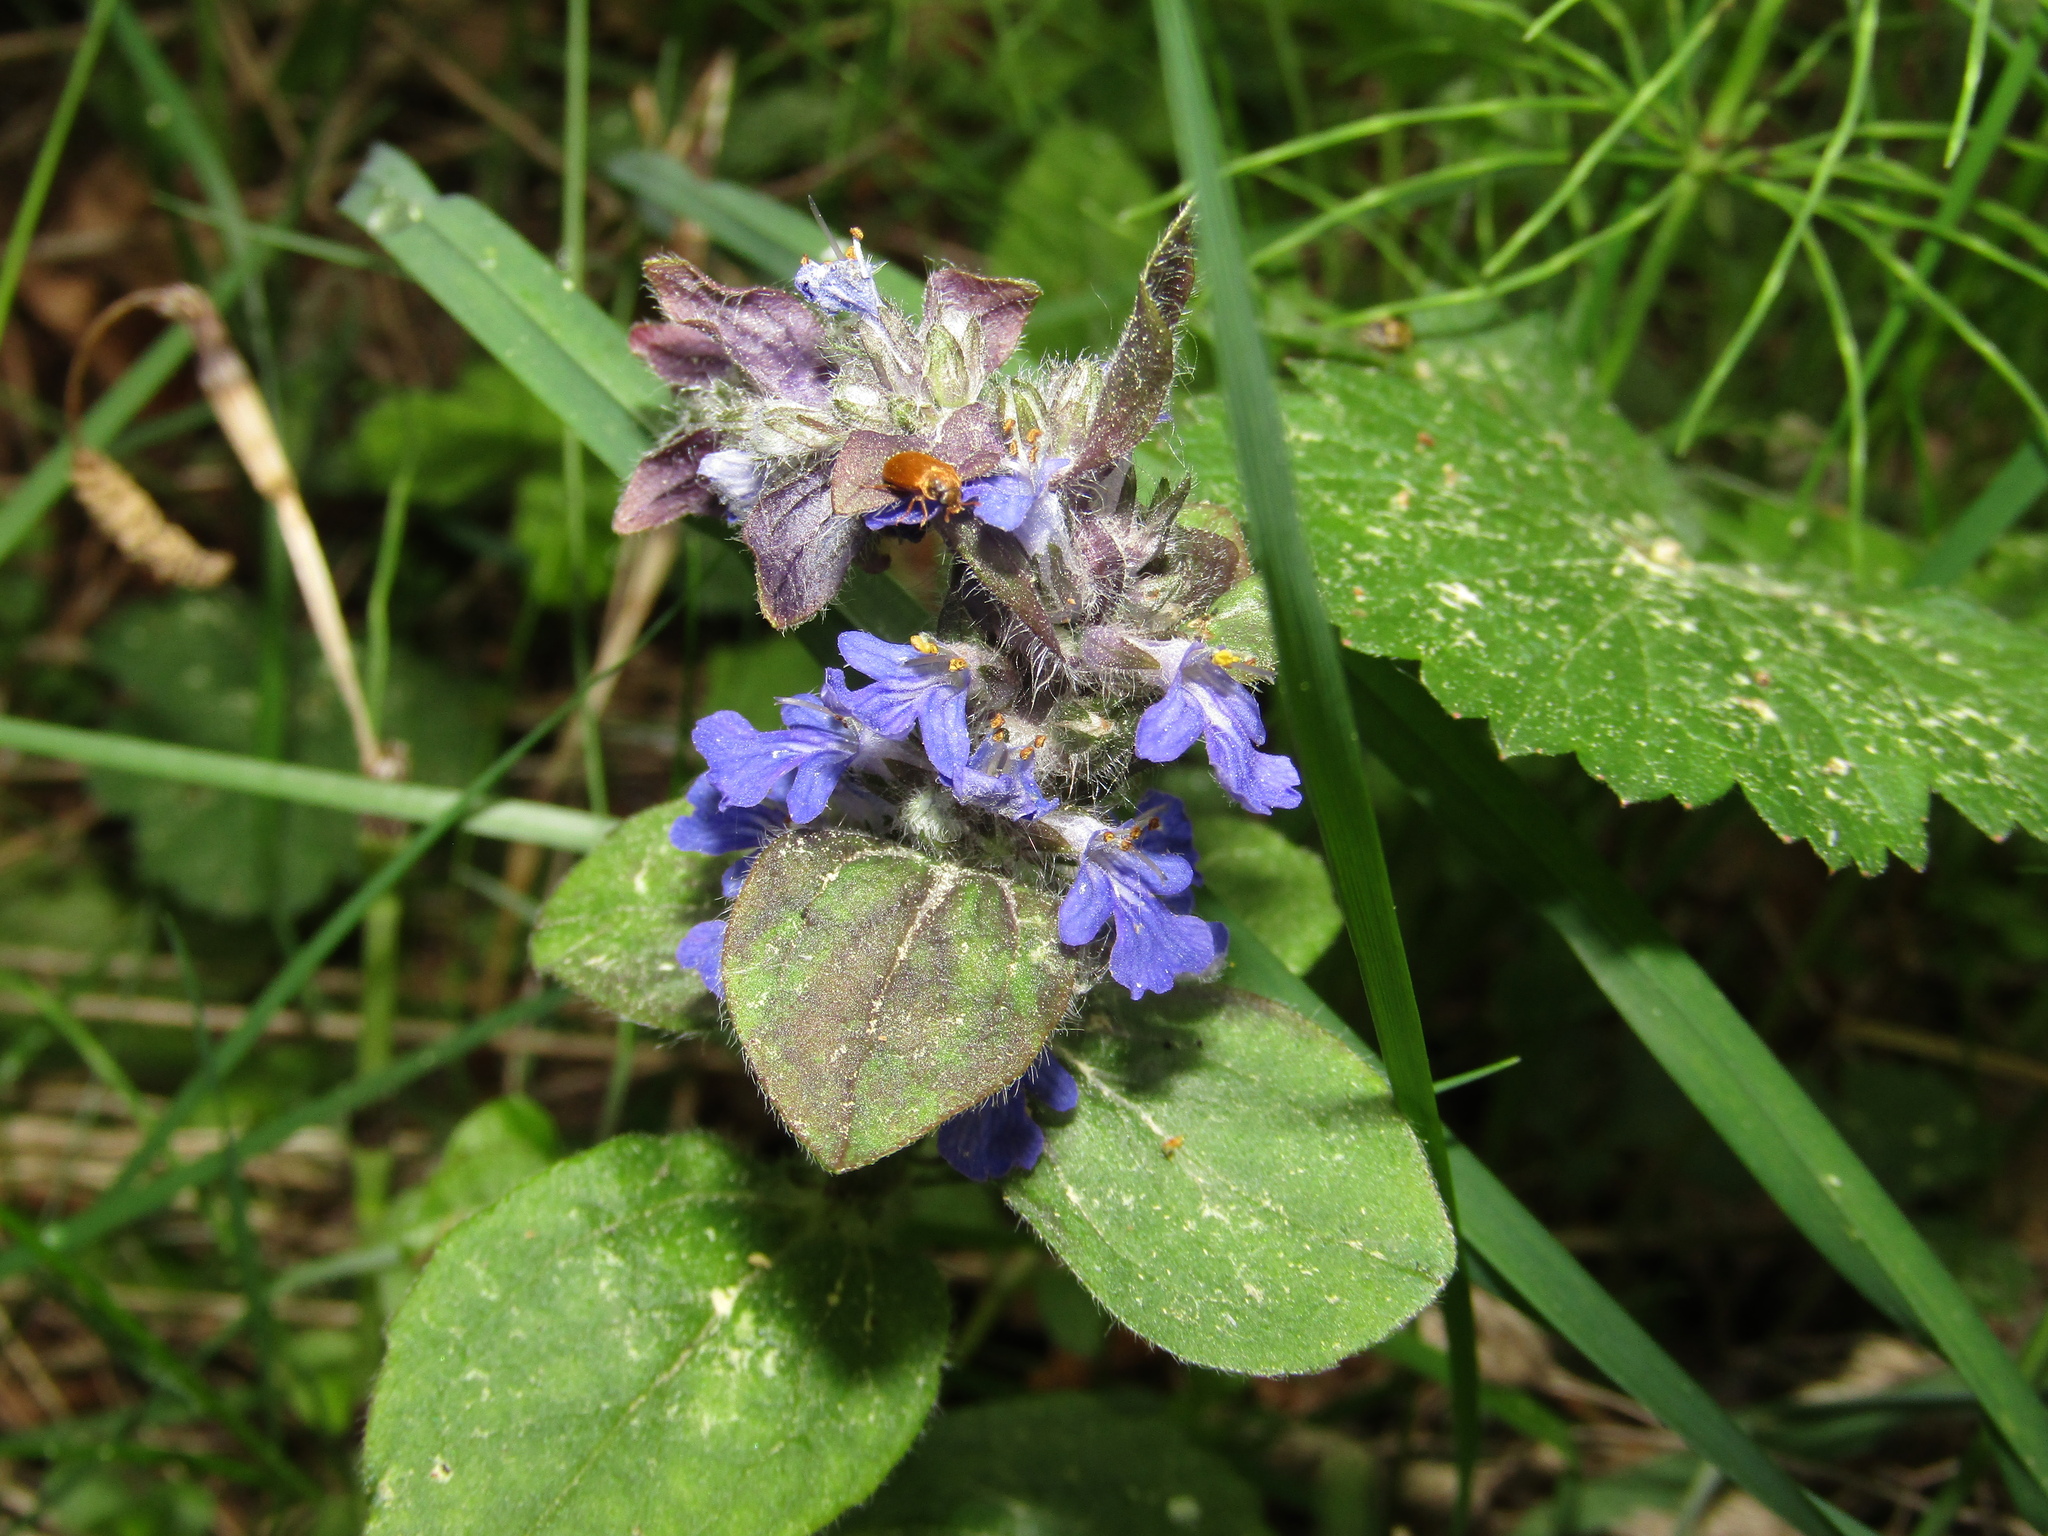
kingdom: Plantae
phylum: Tracheophyta
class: Magnoliopsida
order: Lamiales
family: Lamiaceae
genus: Ajuga
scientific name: Ajuga reptans
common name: Bugle
